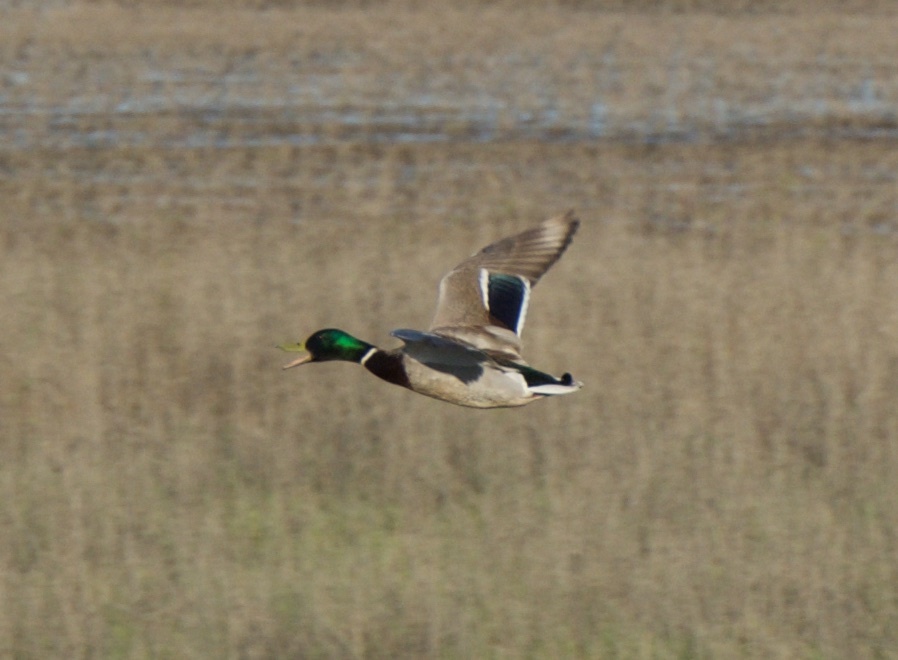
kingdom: Animalia
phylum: Chordata
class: Aves
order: Anseriformes
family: Anatidae
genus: Anas
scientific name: Anas platyrhynchos
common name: Mallard
